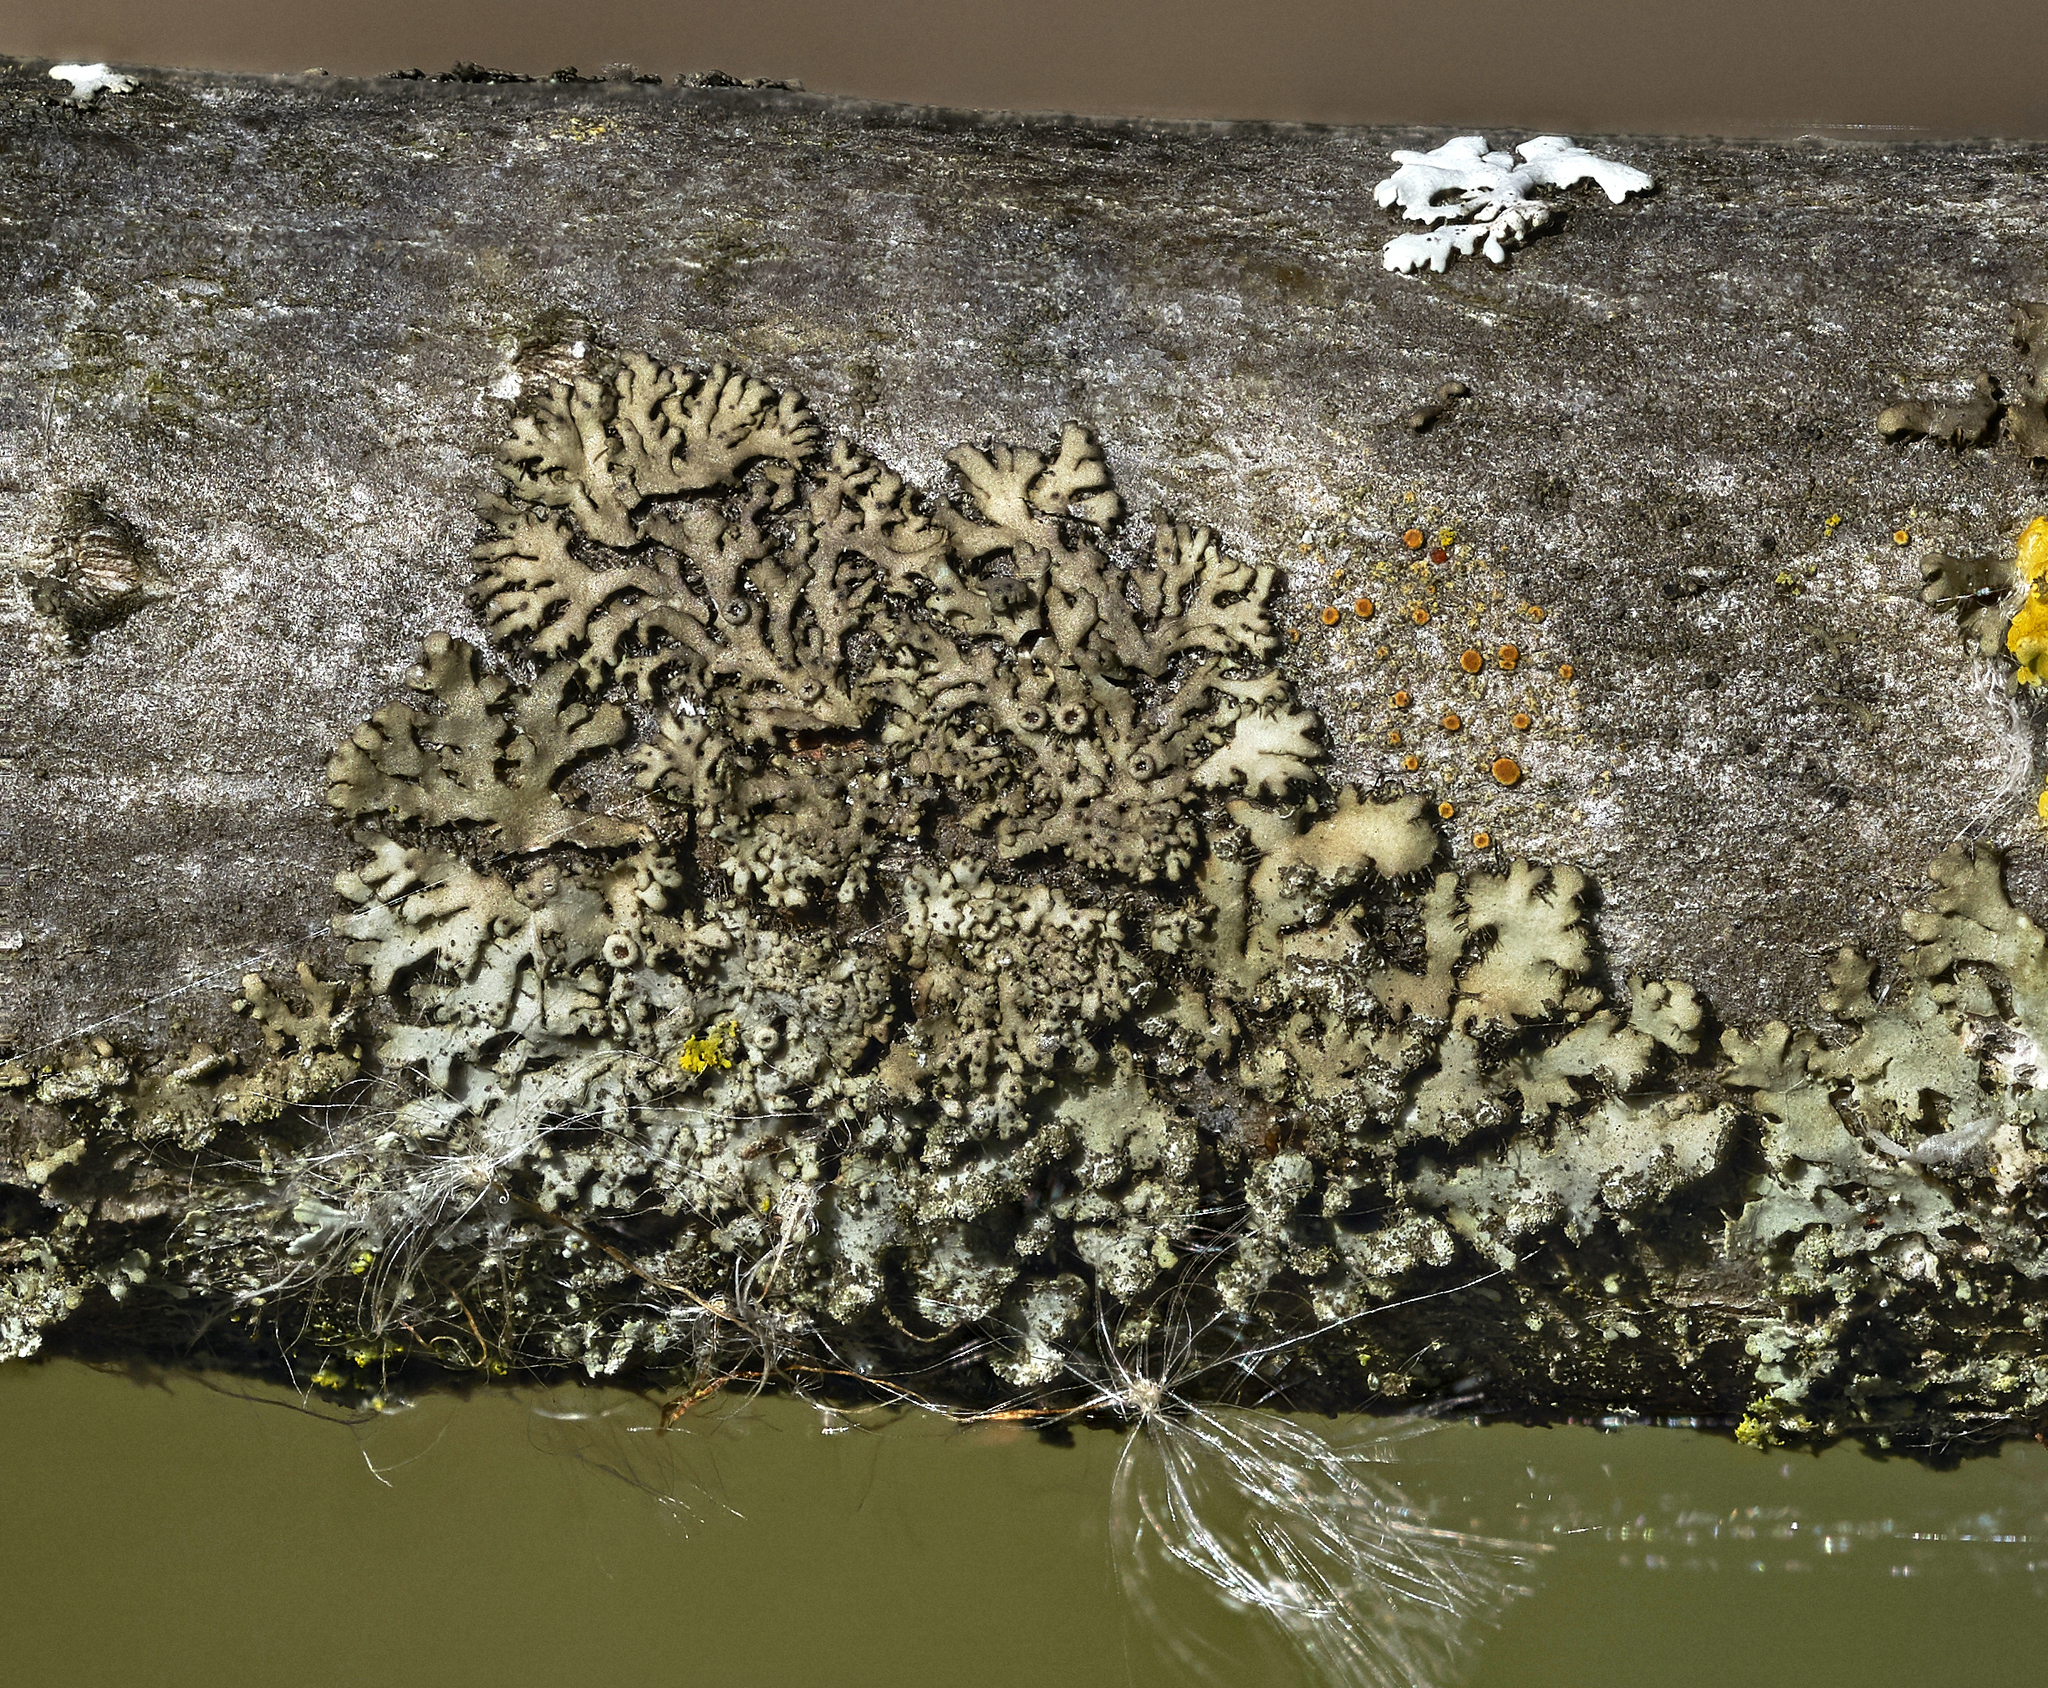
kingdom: Fungi
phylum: Ascomycota
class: Lecanoromycetes
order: Caliciales
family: Physciaceae
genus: Phaeophyscia
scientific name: Phaeophyscia orbicularis
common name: Mealy shadow lichen
